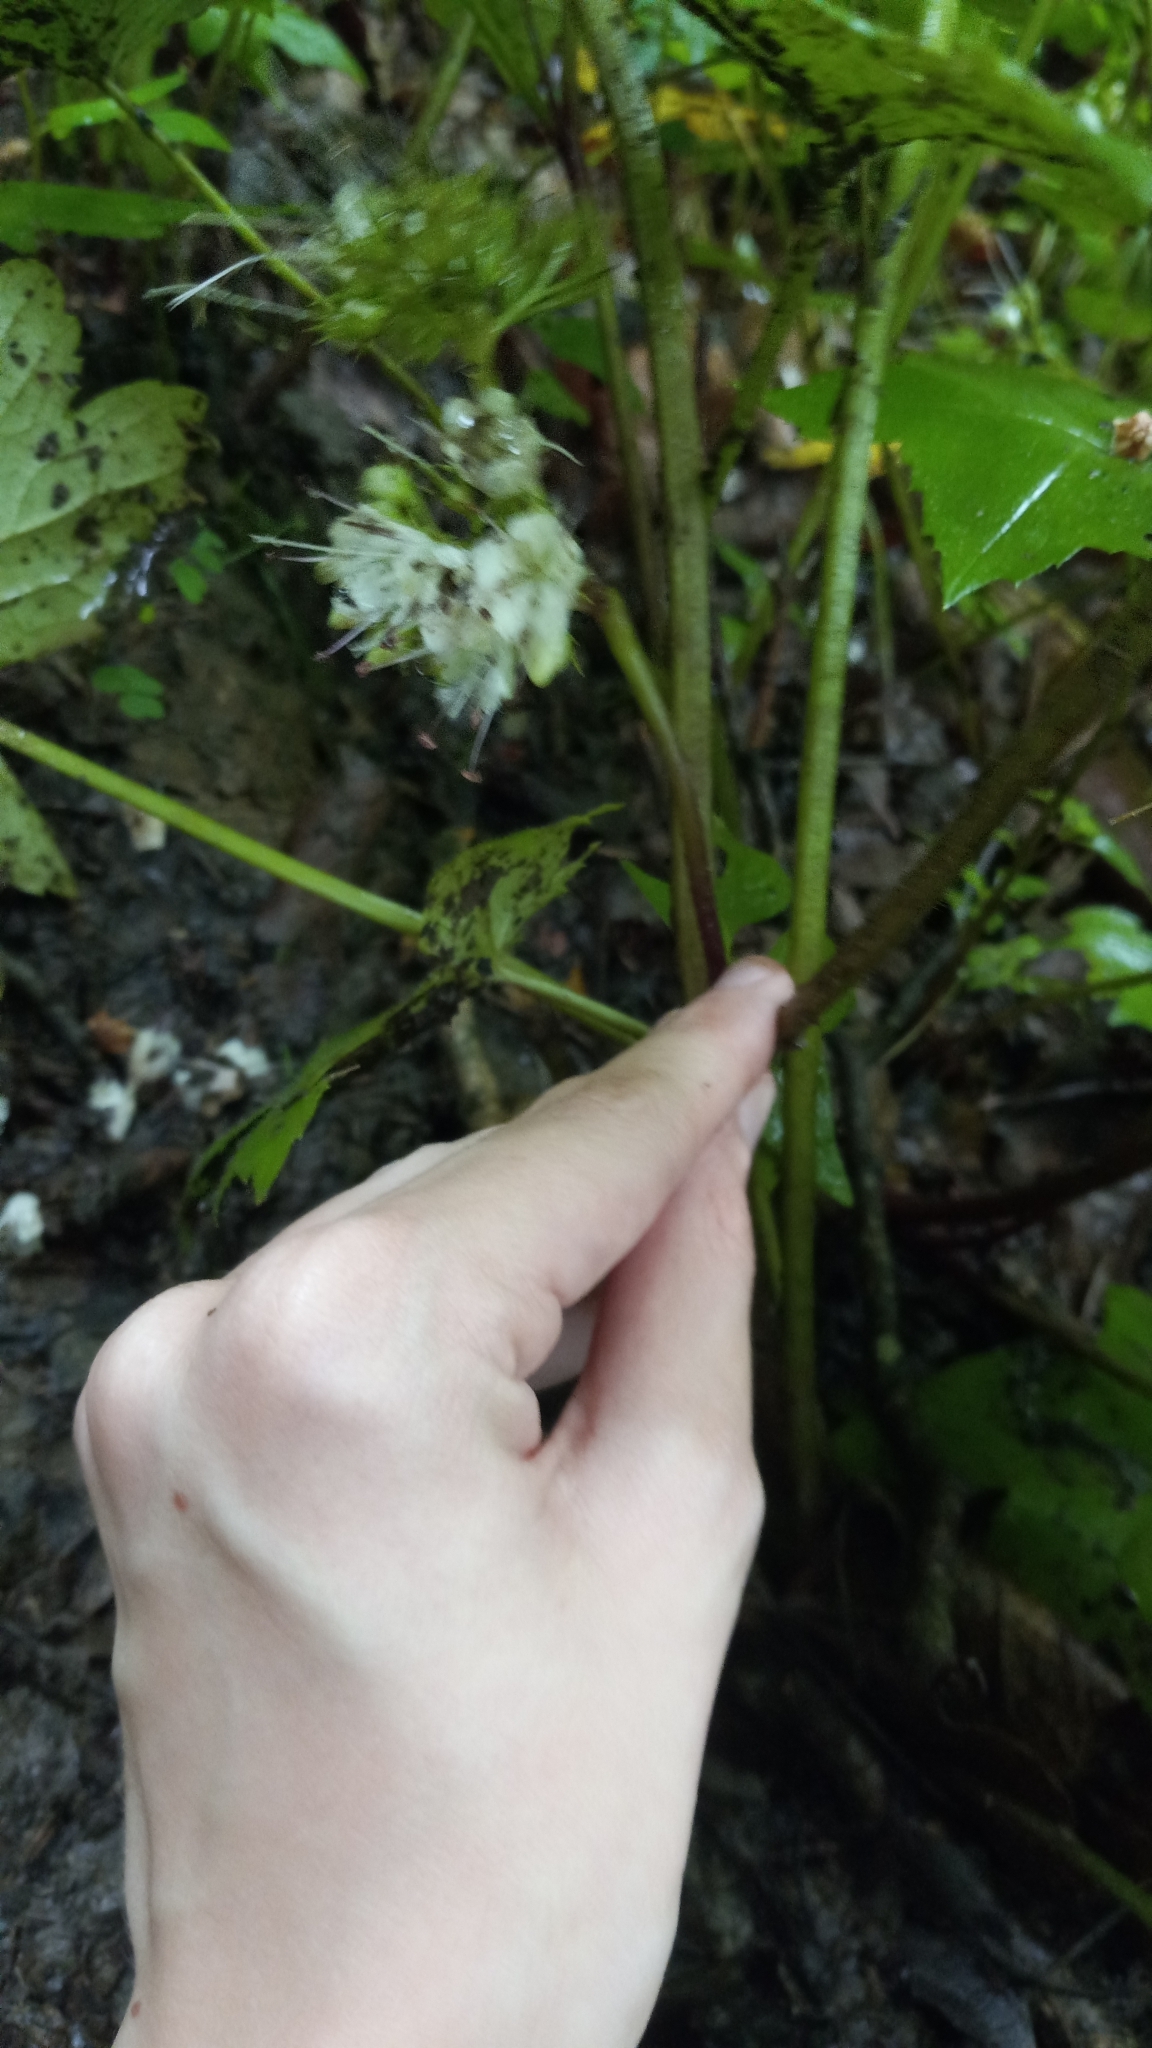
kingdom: Plantae
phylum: Tracheophyta
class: Magnoliopsida
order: Boraginales
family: Hydrophyllaceae
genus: Hydrophyllum
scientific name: Hydrophyllum canadense
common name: Canada waterleaf
